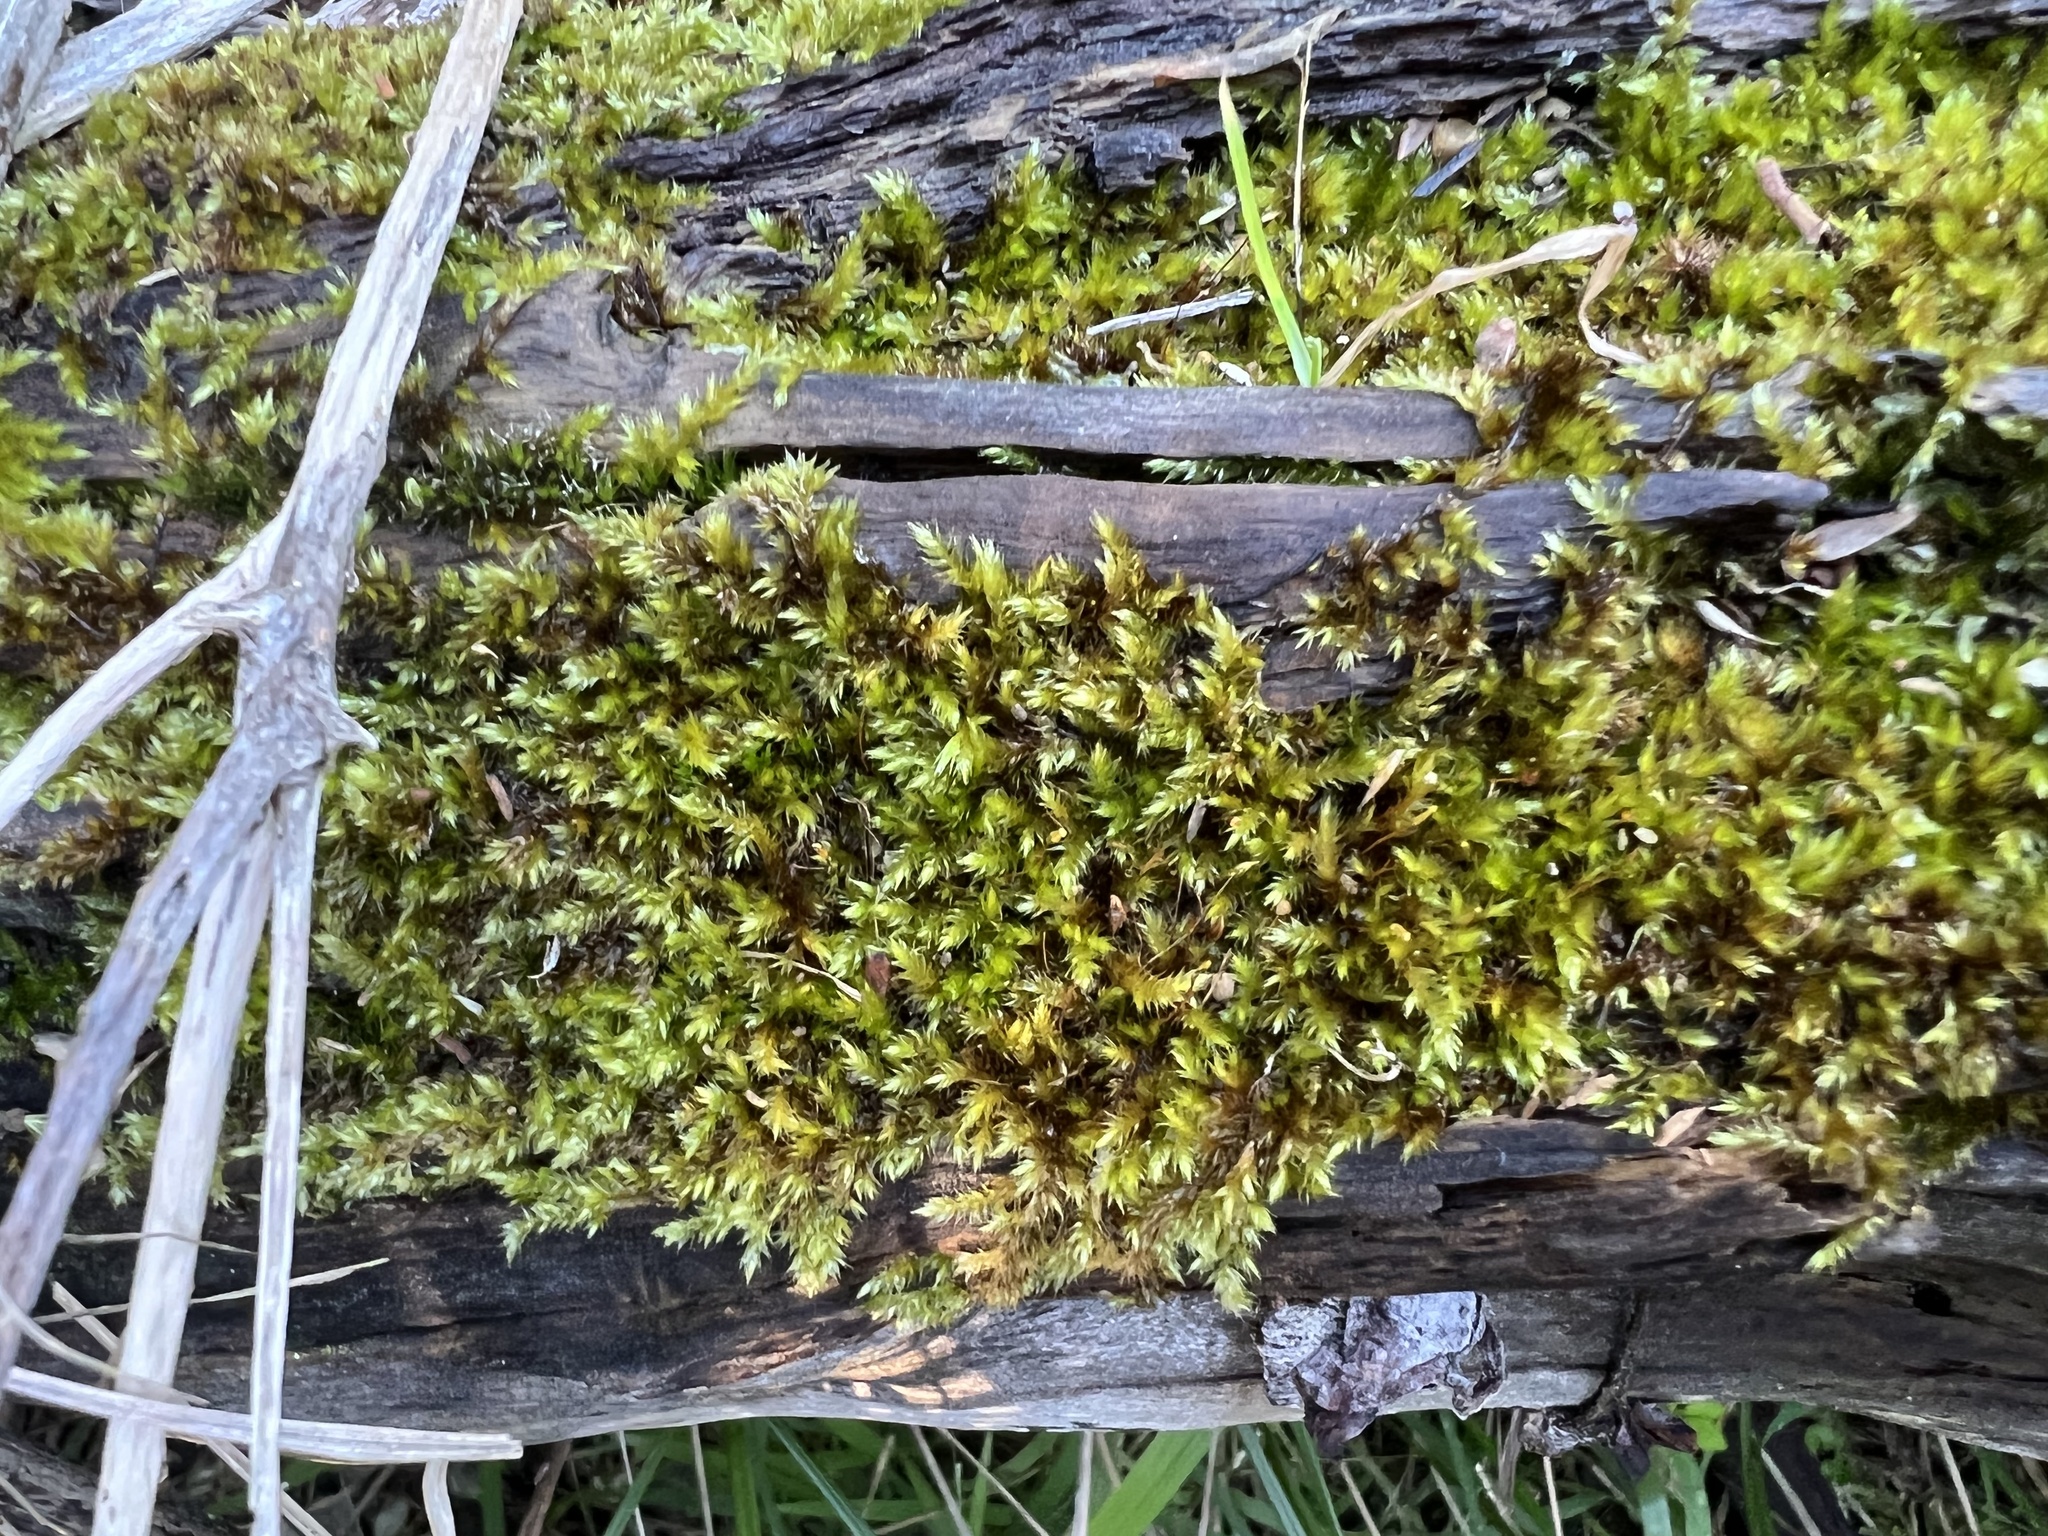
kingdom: Plantae
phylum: Bryophyta
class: Bryopsida
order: Hypnales
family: Sematophyllaceae
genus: Sematophyllum
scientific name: Sematophyllum homomallum
